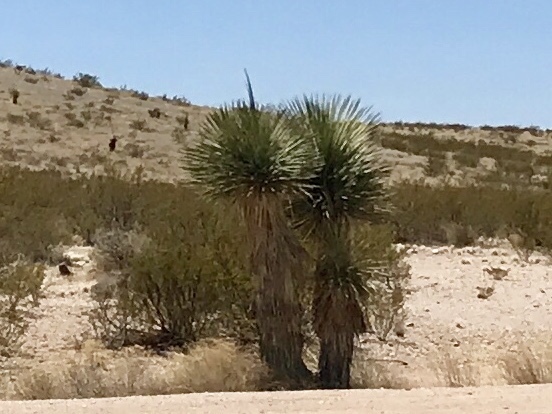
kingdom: Plantae
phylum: Tracheophyta
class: Liliopsida
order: Asparagales
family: Asparagaceae
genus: Yucca
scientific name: Yucca elata
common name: Palmella
